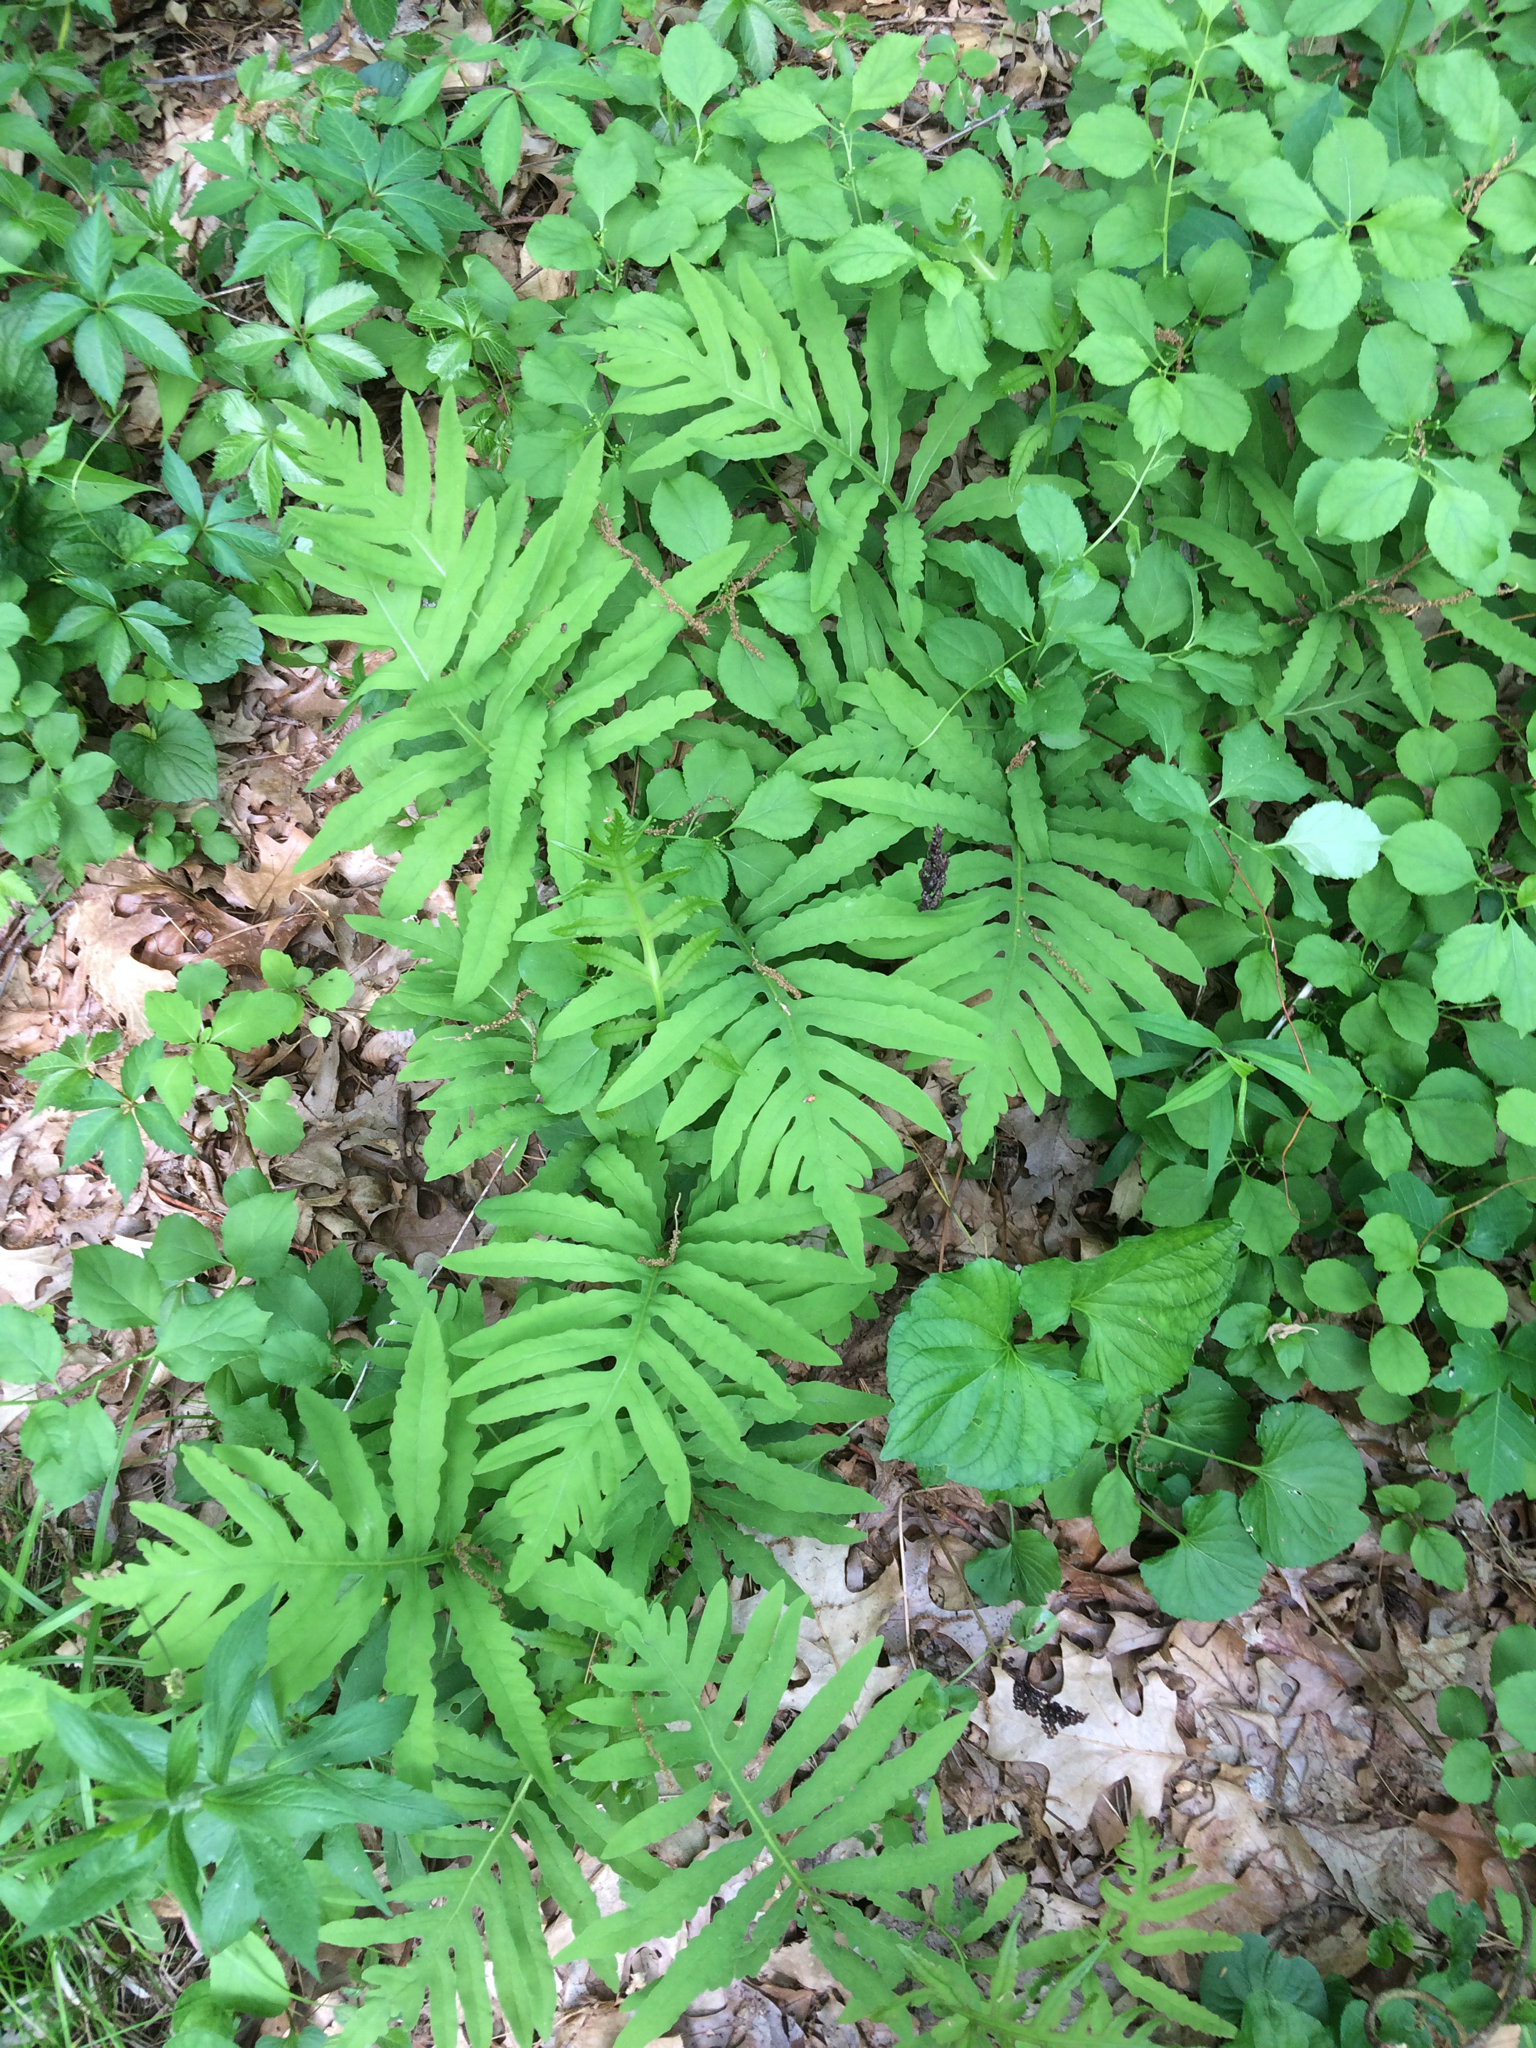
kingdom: Plantae
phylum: Tracheophyta
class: Polypodiopsida
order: Polypodiales
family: Onocleaceae
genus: Onoclea
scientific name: Onoclea sensibilis
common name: Sensitive fern
